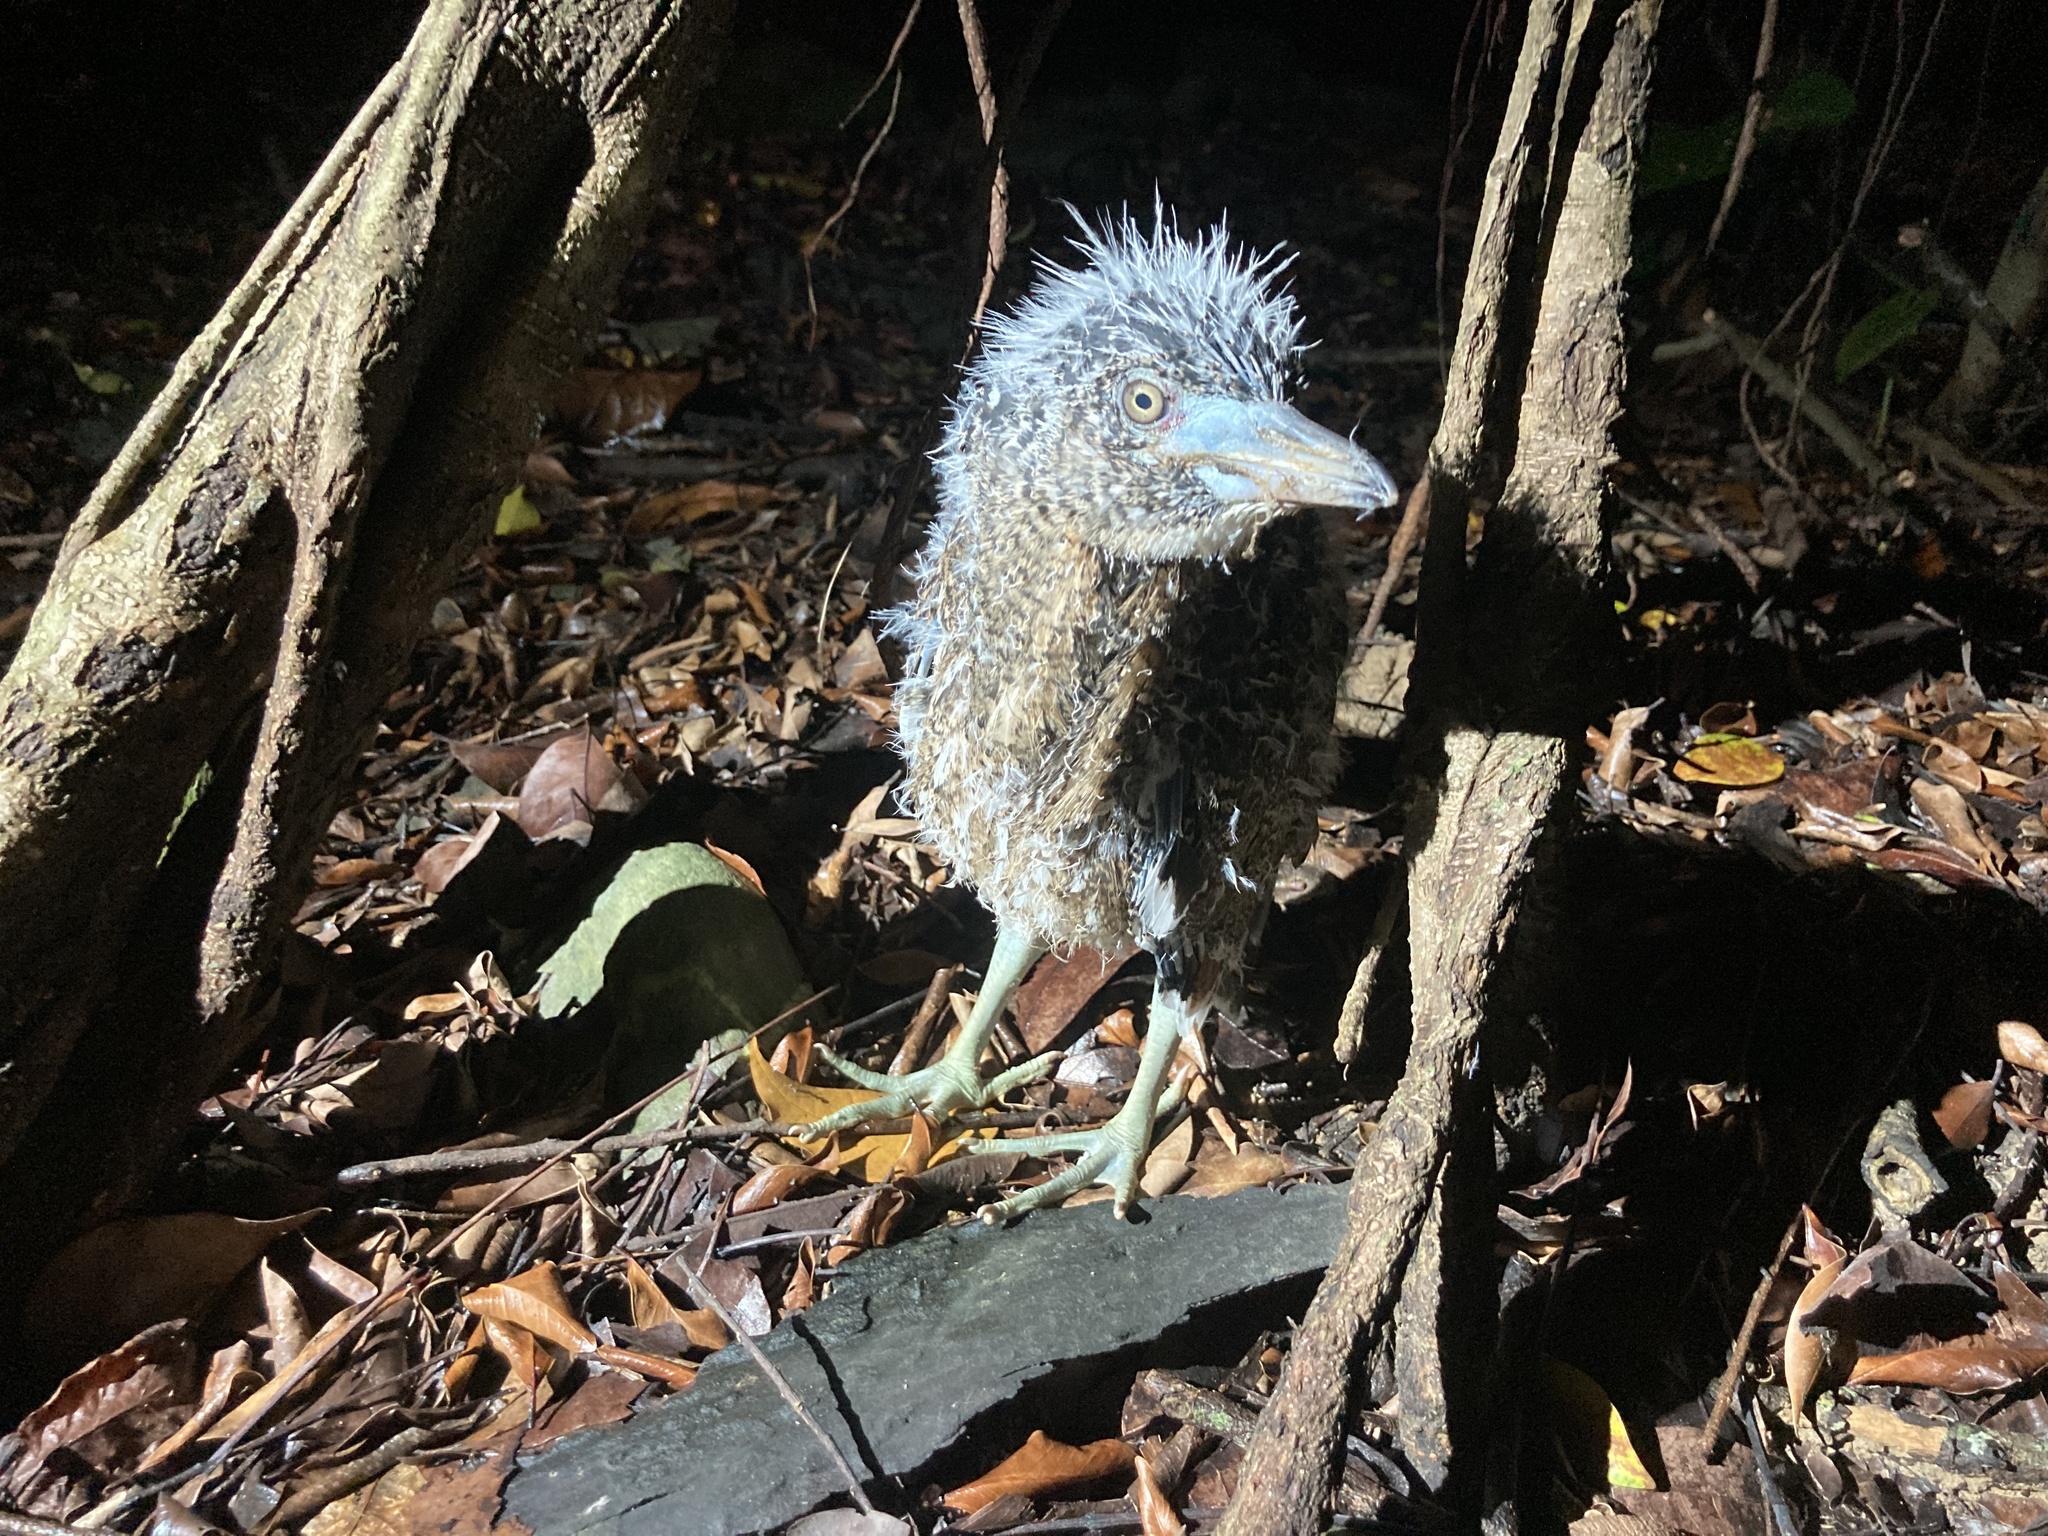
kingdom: Animalia
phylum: Chordata
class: Aves
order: Pelecaniformes
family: Ardeidae
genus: Gorsachius
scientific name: Gorsachius melanolophus
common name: Malayan night heron
